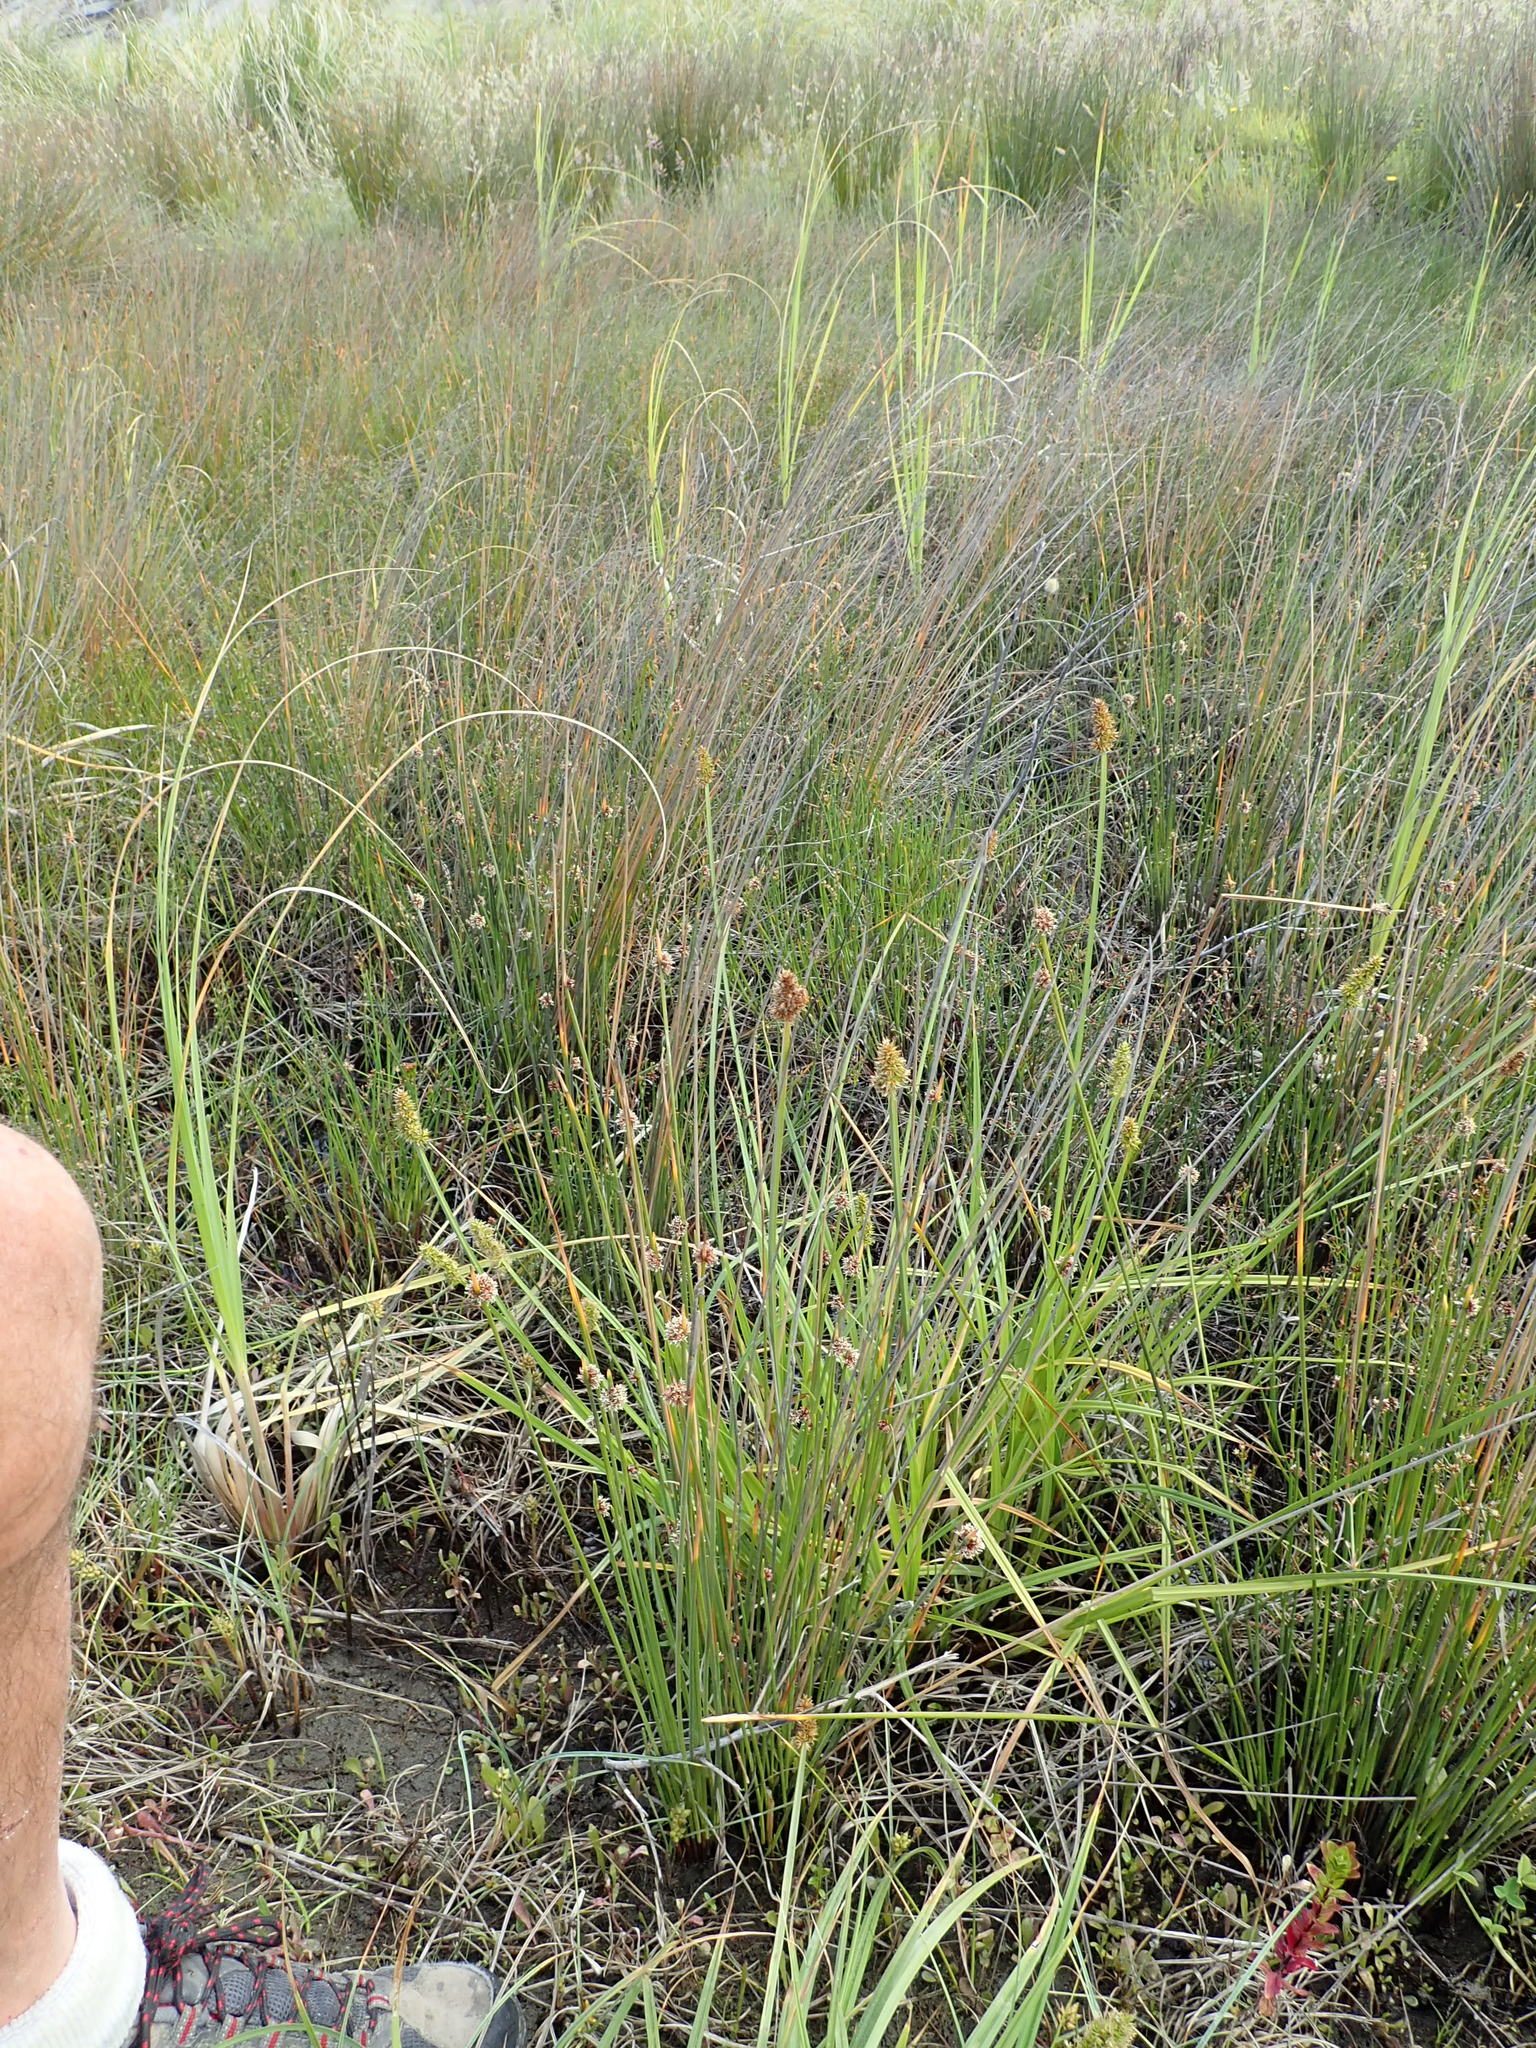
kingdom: Plantae
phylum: Tracheophyta
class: Liliopsida
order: Poales
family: Cyperaceae
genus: Carex
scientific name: Carex otrubae
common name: False fox-sedge
